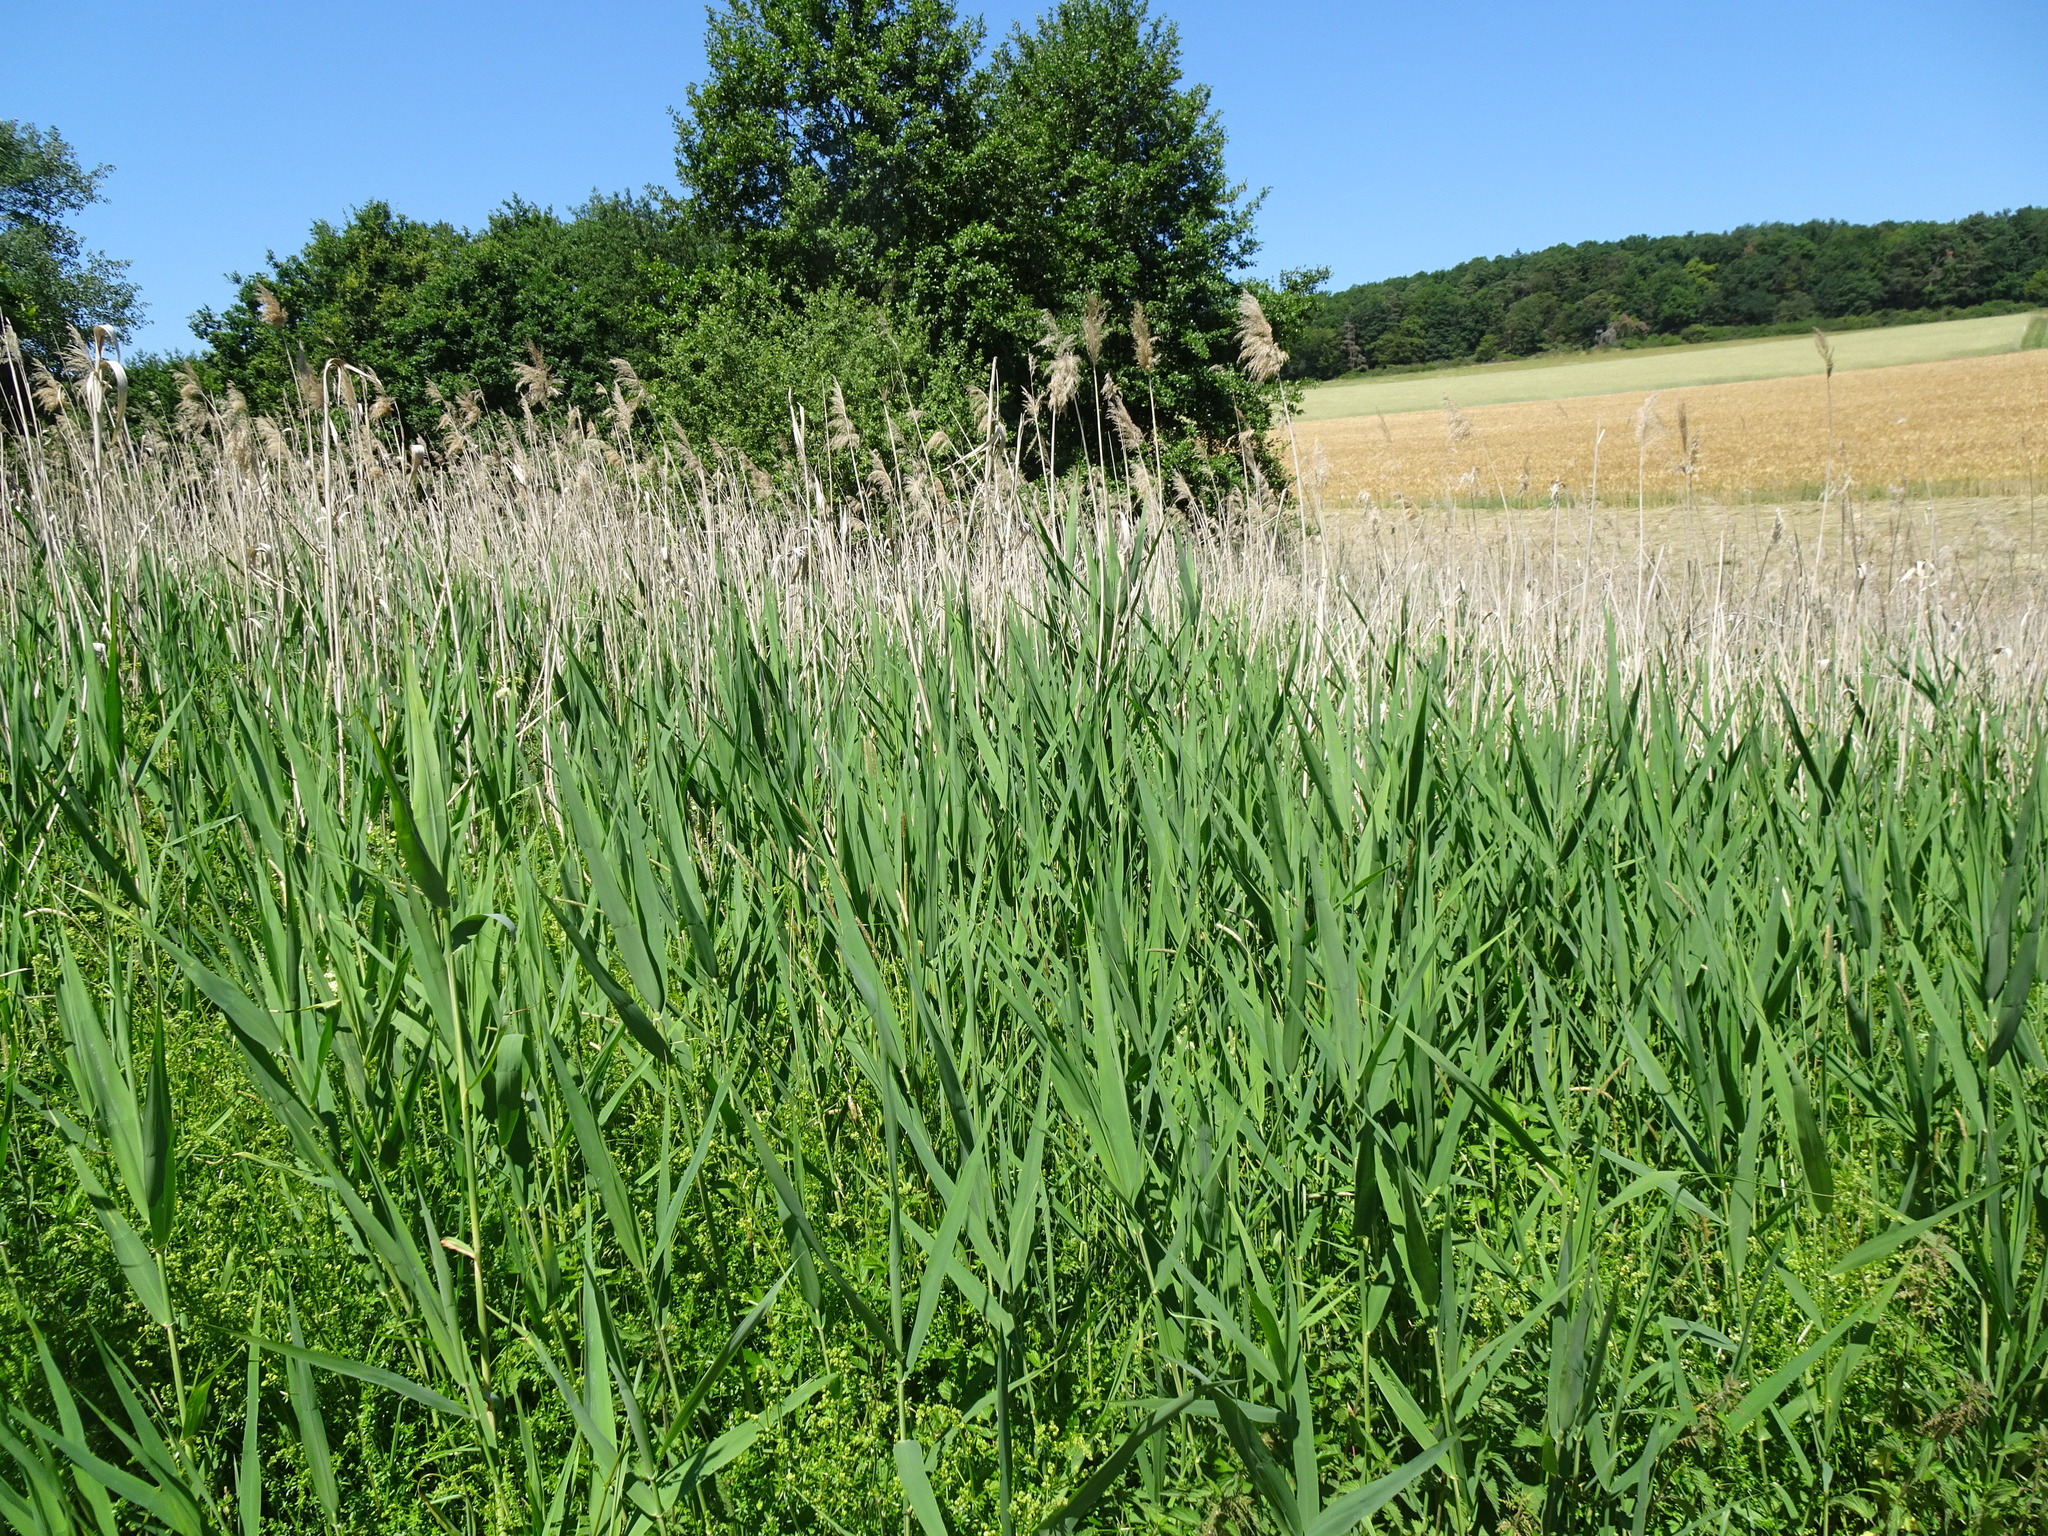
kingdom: Plantae
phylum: Tracheophyta
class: Liliopsida
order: Poales
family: Poaceae
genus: Phragmites
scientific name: Phragmites australis
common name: Common reed
